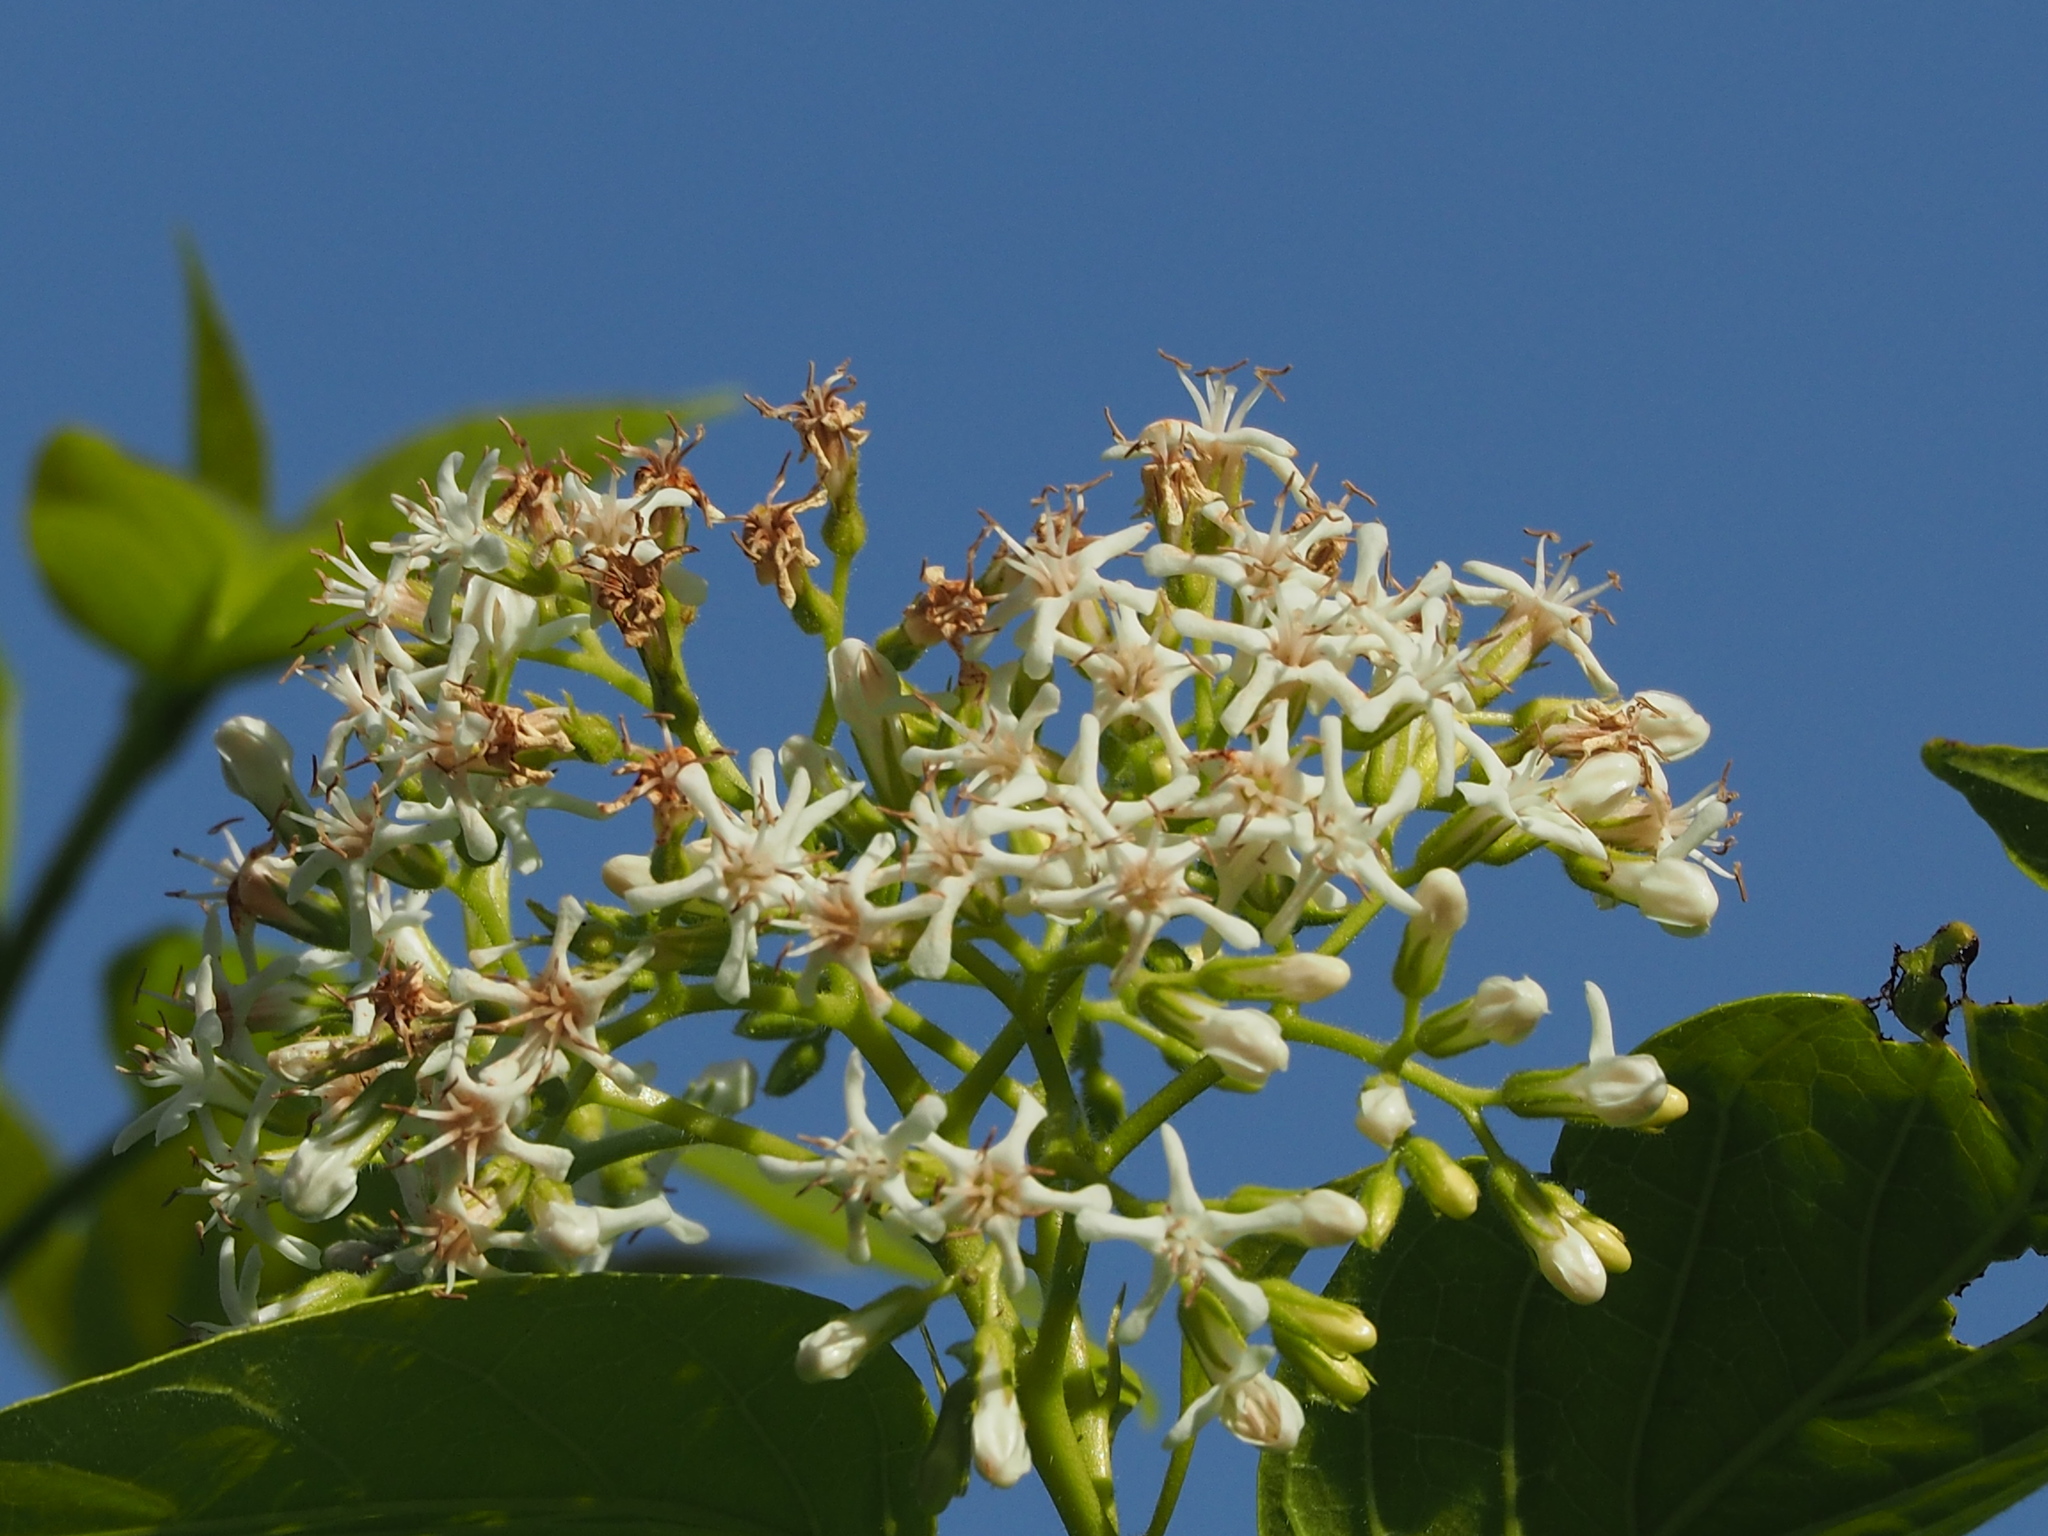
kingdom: Plantae
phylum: Tracheophyta
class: Magnoliopsida
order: Boraginales
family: Ehretiaceae
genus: Ehretia
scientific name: Ehretia resinosa
